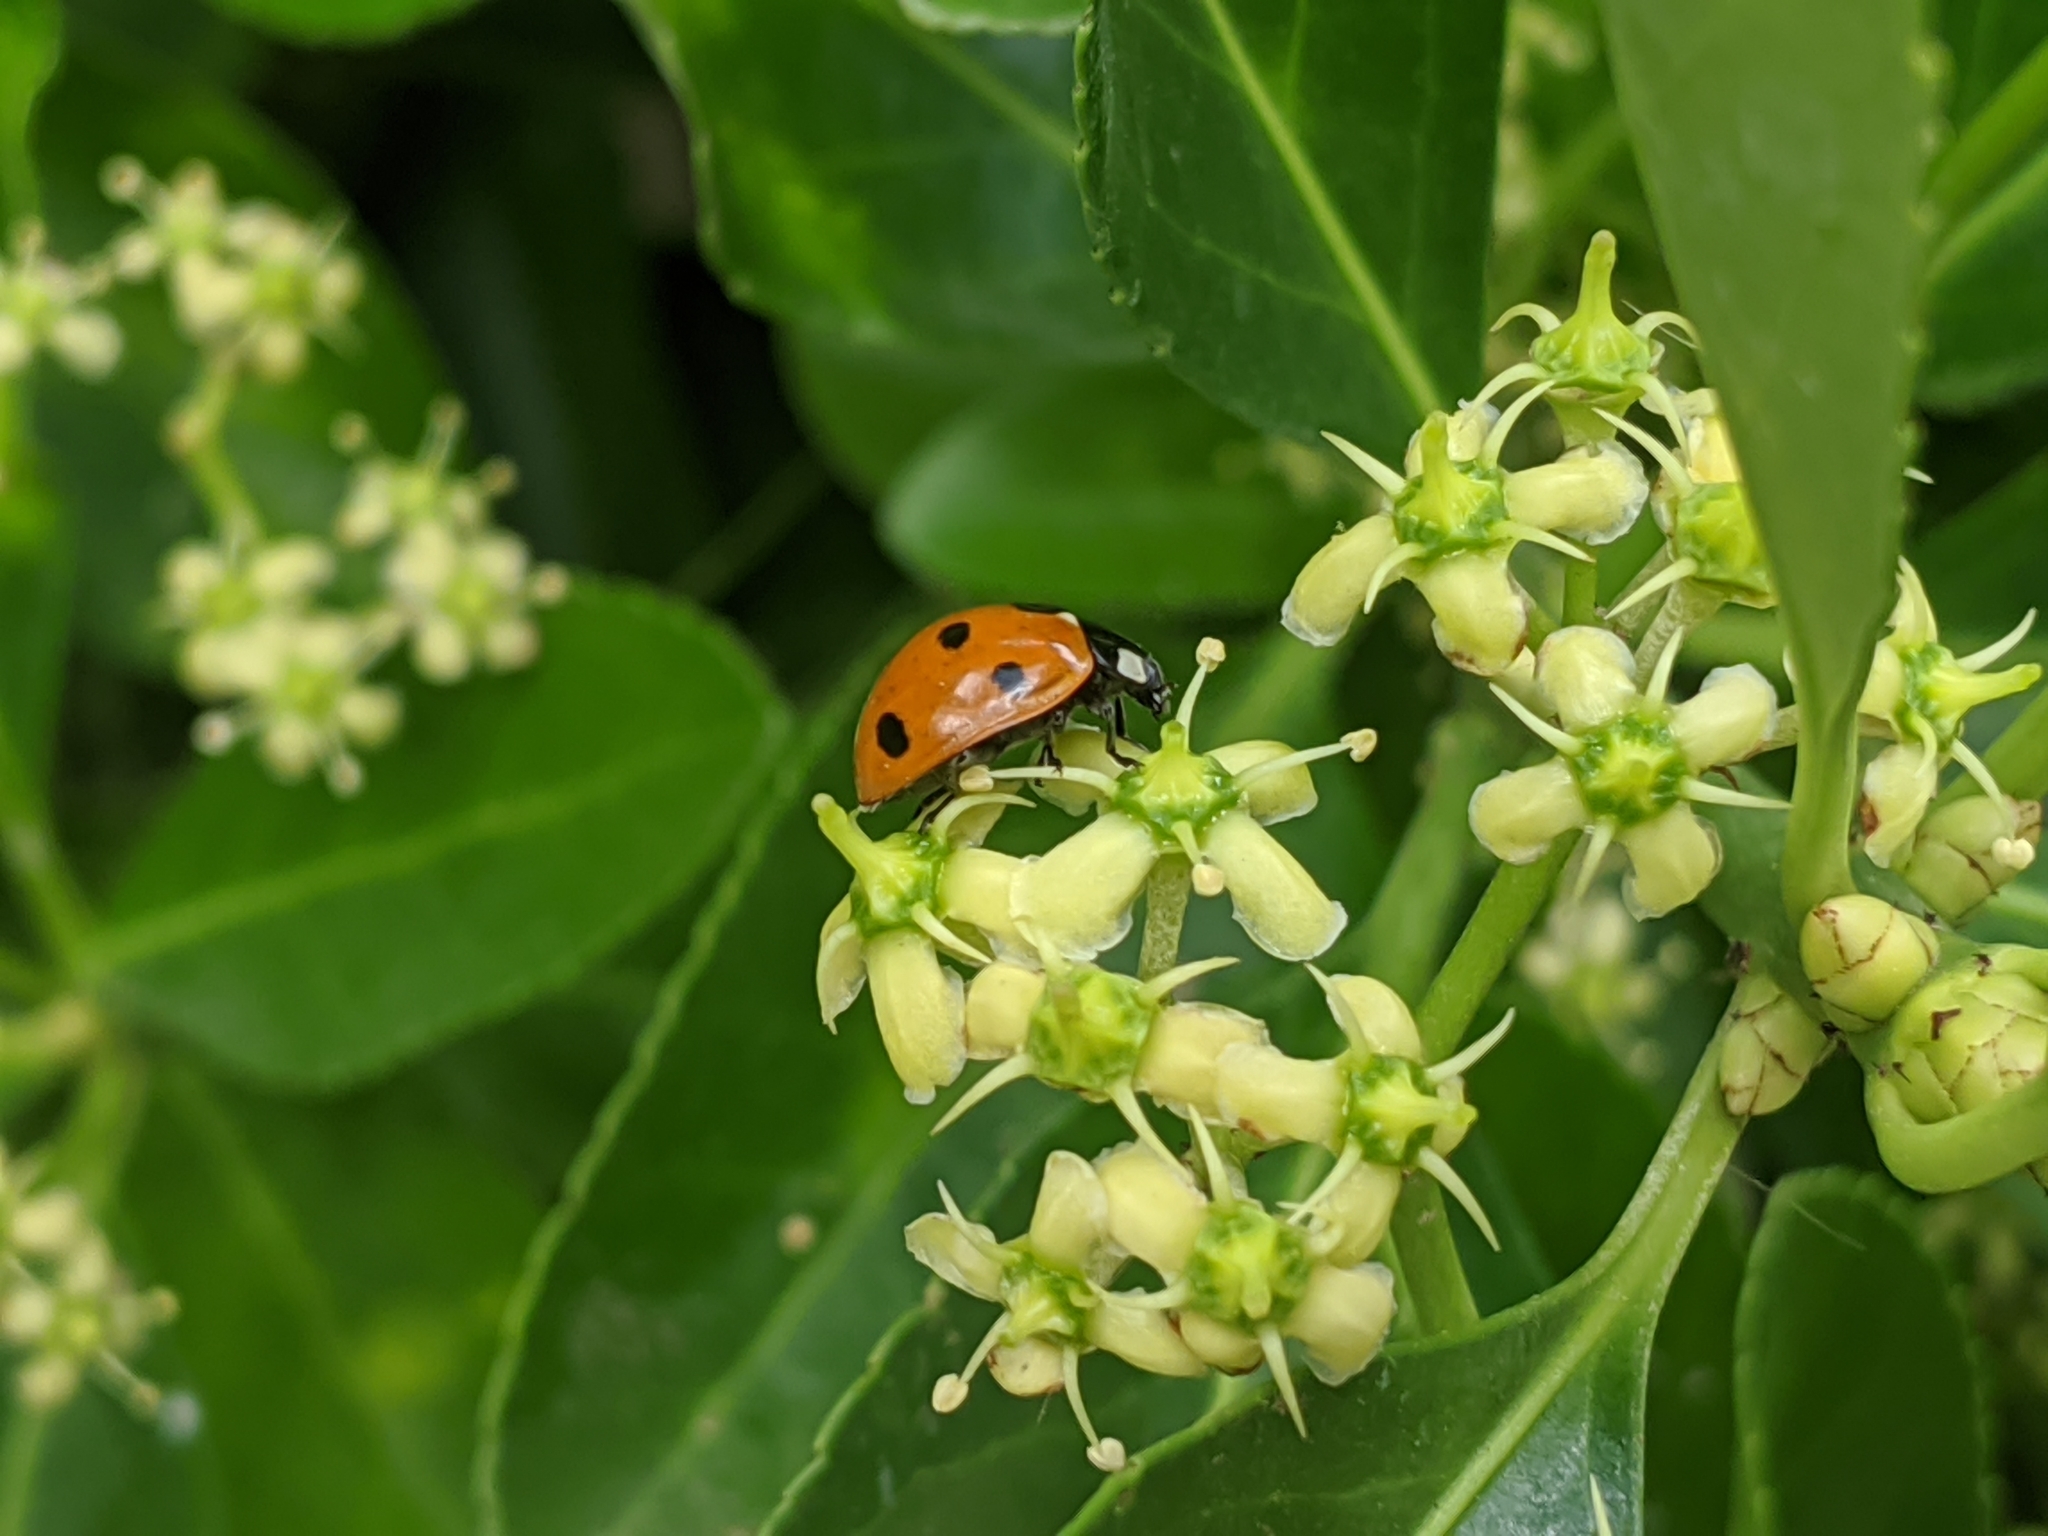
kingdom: Animalia
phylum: Arthropoda
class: Insecta
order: Coleoptera
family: Coccinellidae
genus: Coccinella
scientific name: Coccinella septempunctata
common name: Sevenspotted lady beetle
